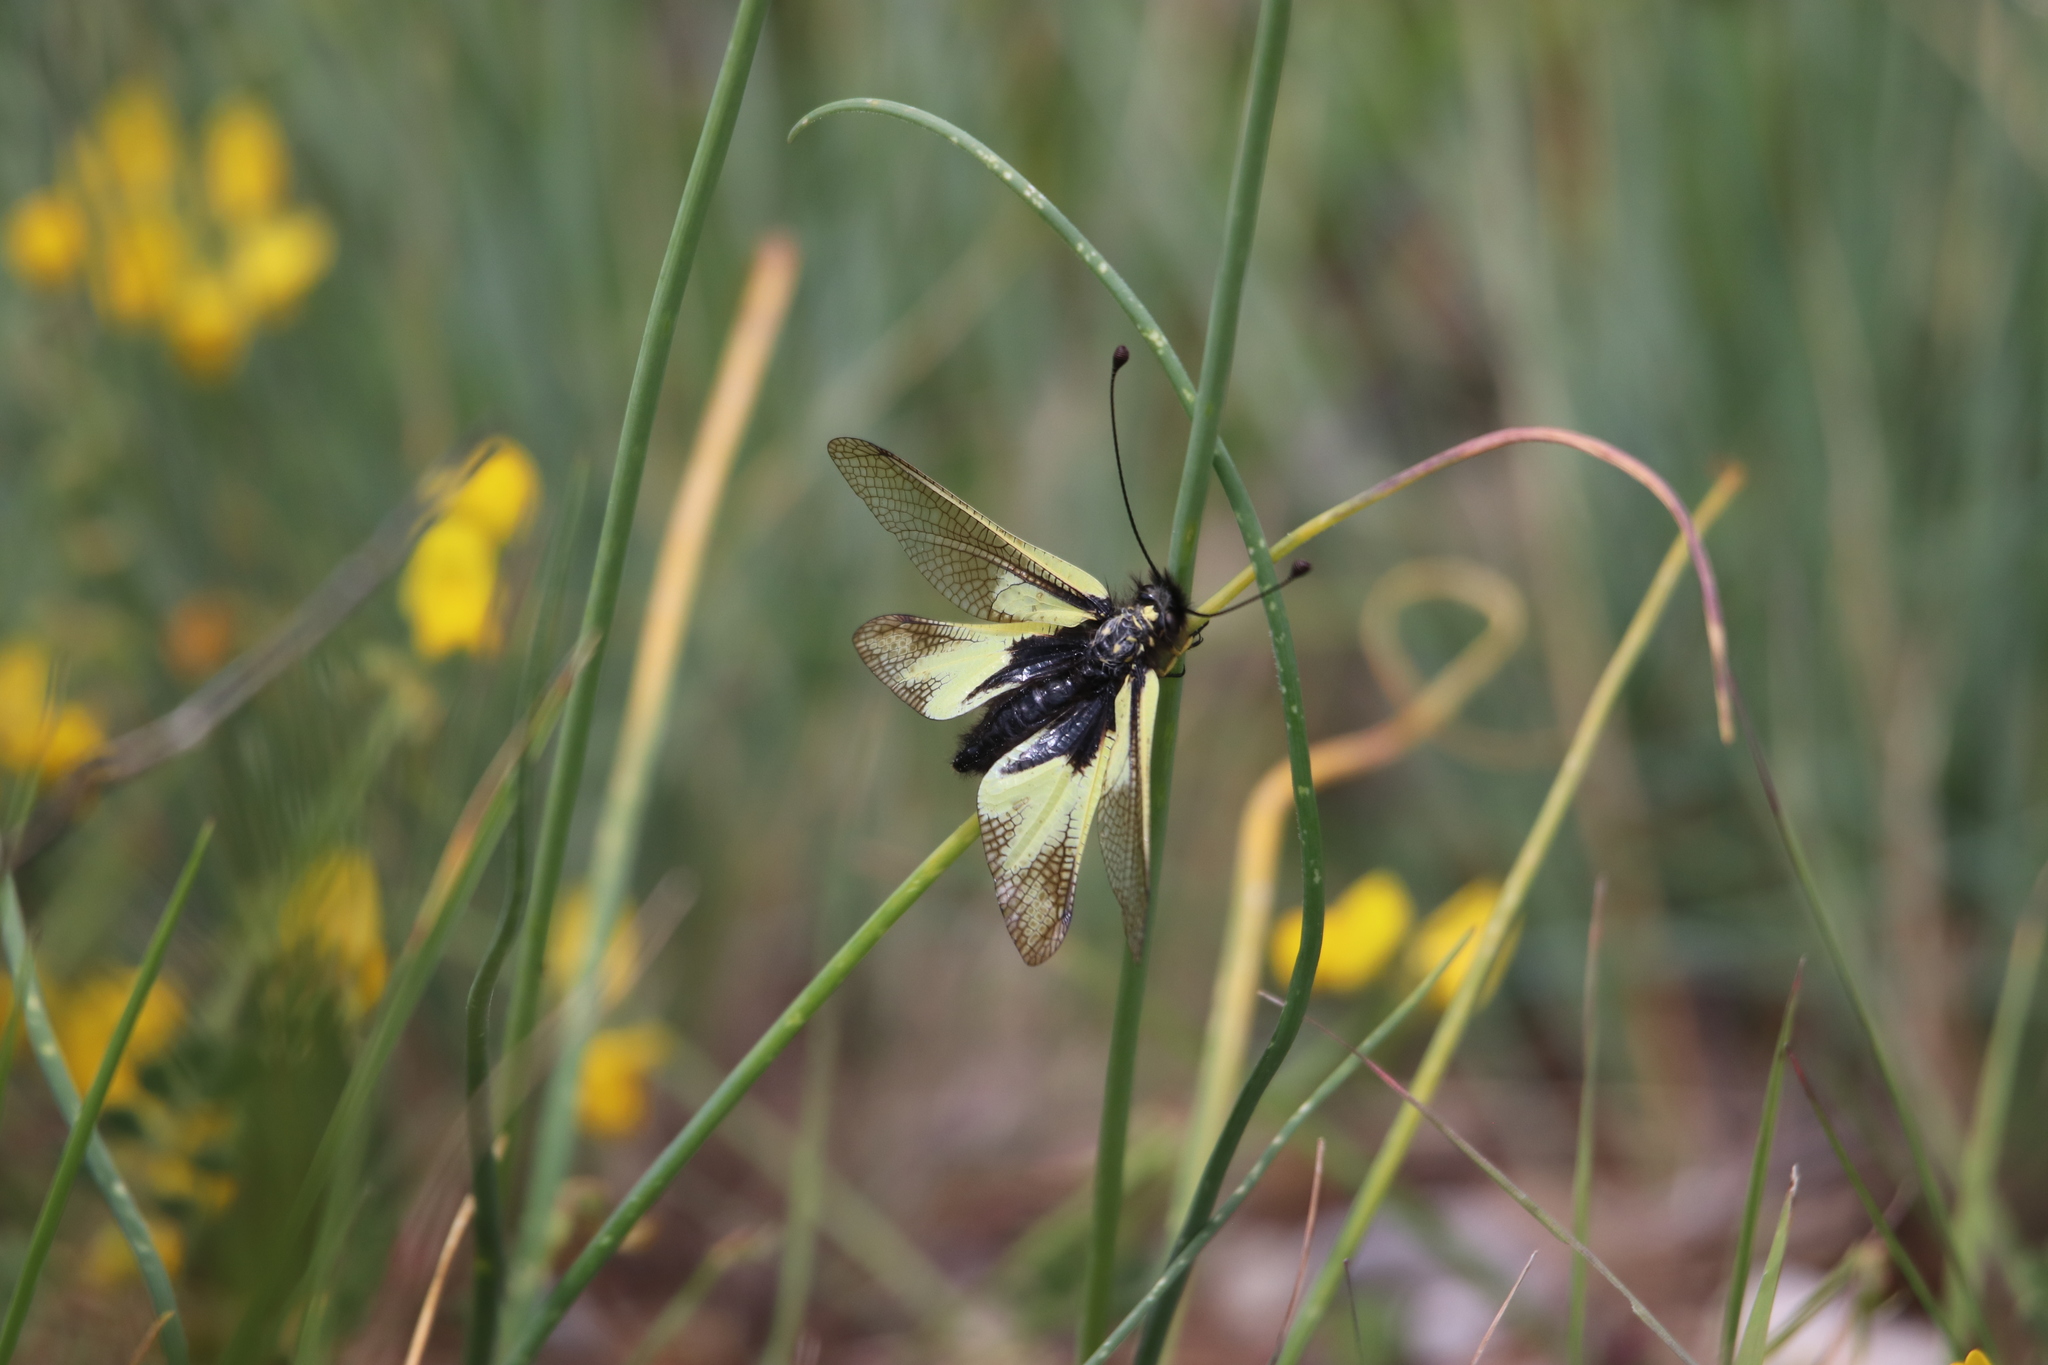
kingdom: Animalia
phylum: Arthropoda
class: Insecta
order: Neuroptera
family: Ascalaphidae
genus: Libelloides
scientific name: Libelloides coccajus
